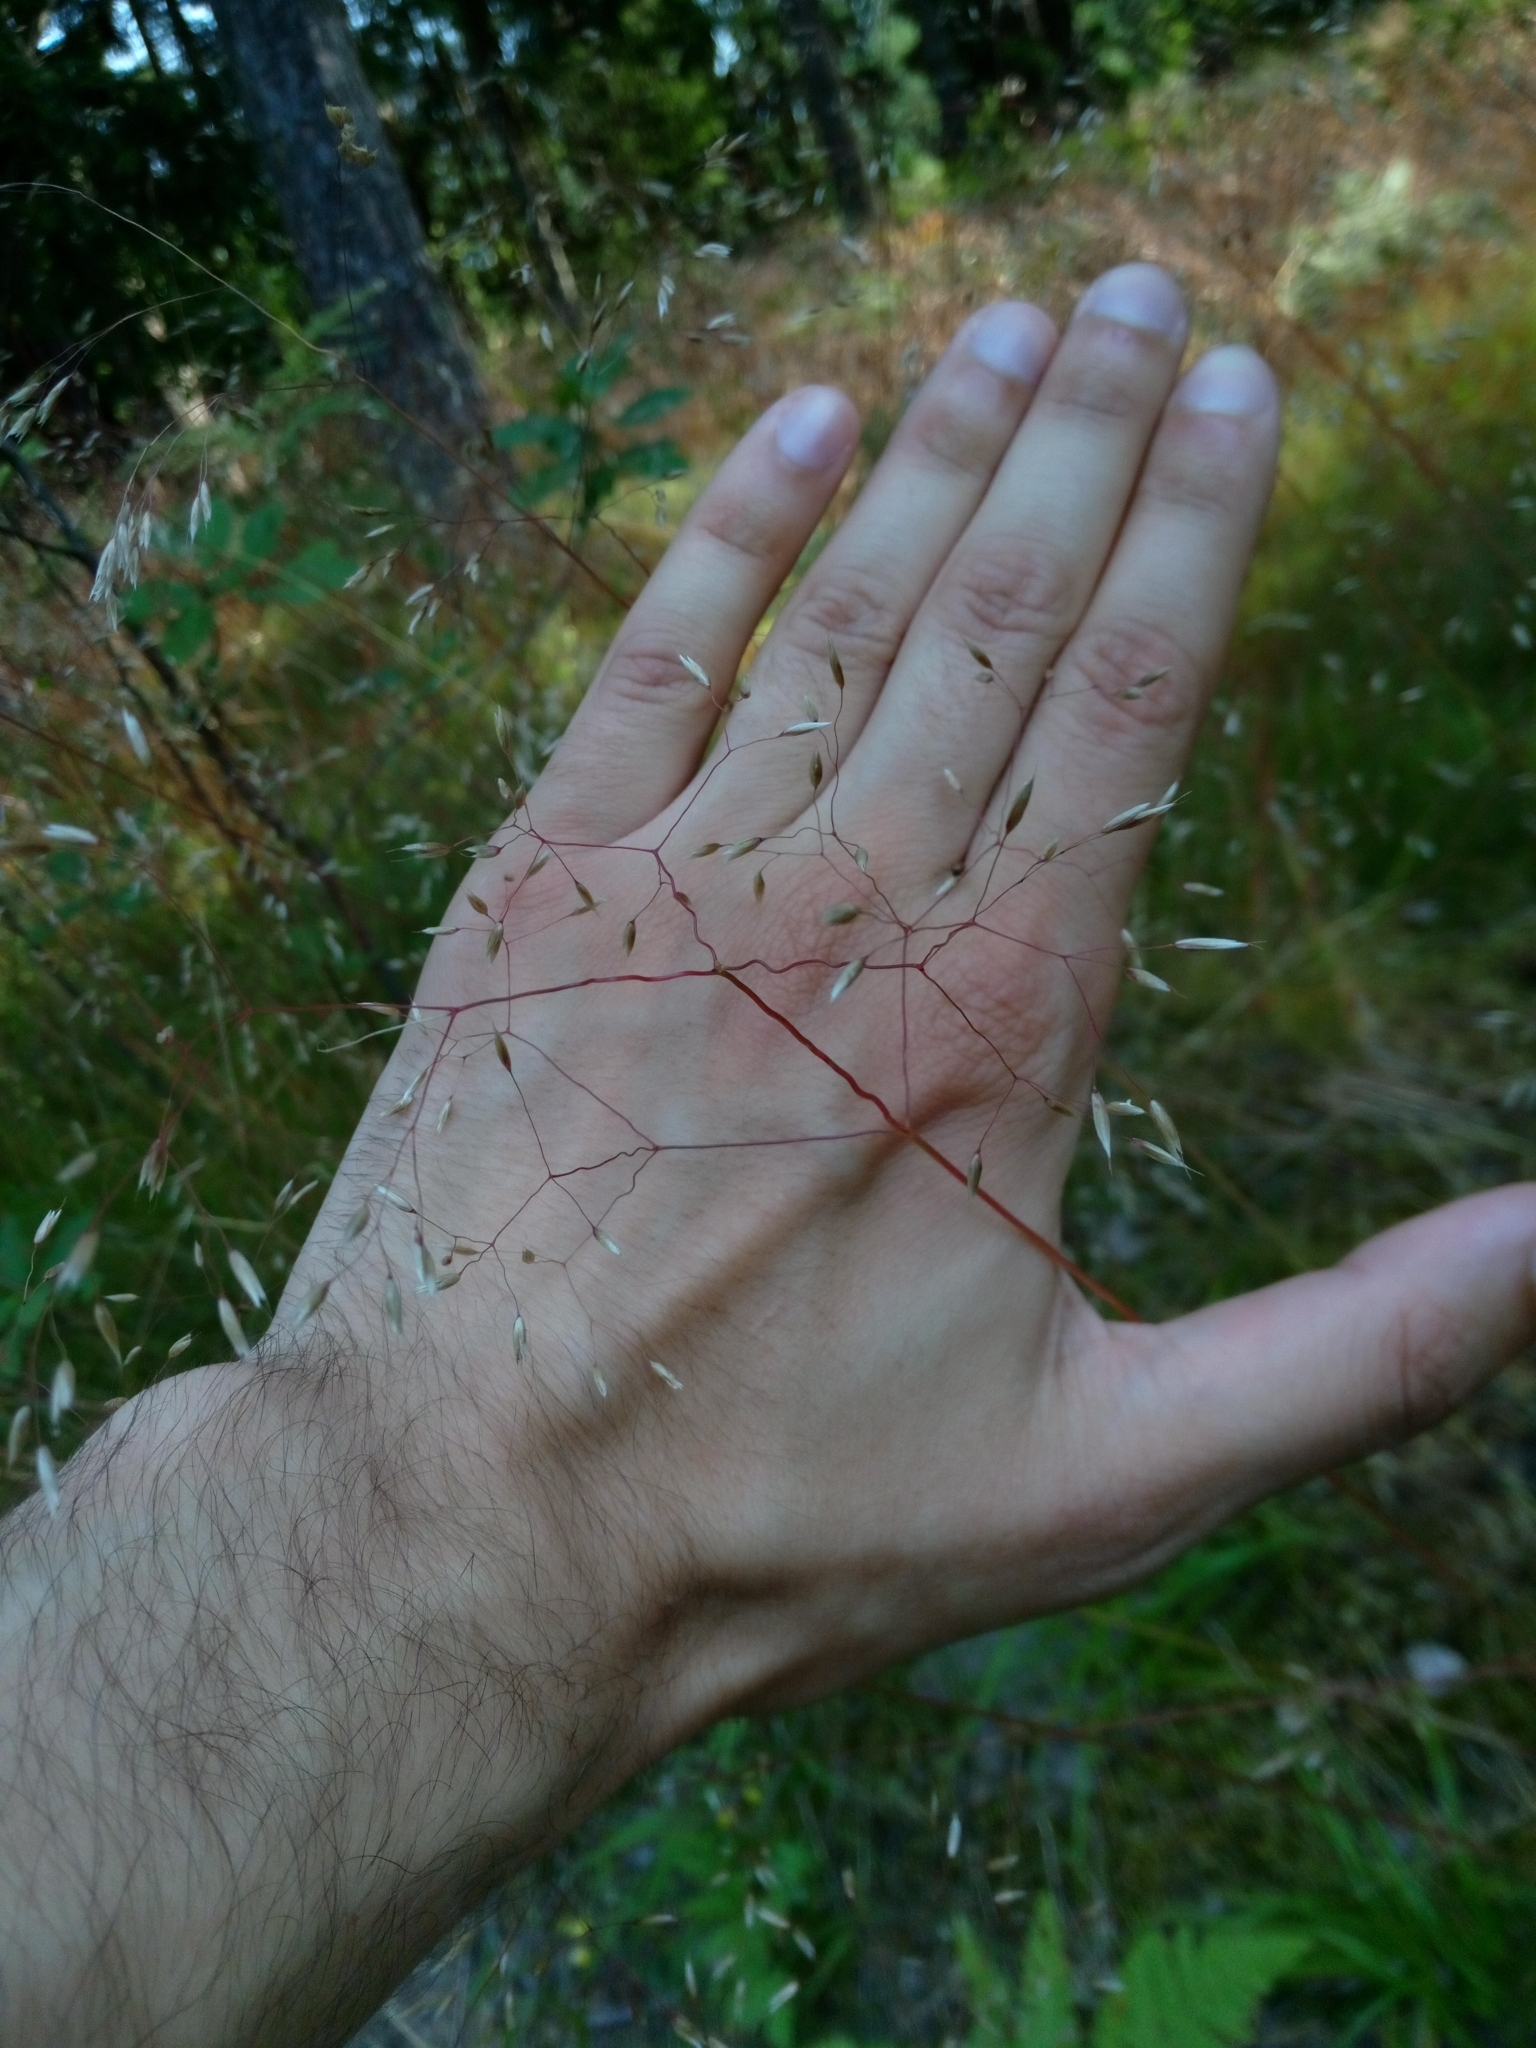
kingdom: Plantae
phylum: Tracheophyta
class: Liliopsida
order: Poales
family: Poaceae
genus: Avenella
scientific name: Avenella flexuosa
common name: Wavy hairgrass
